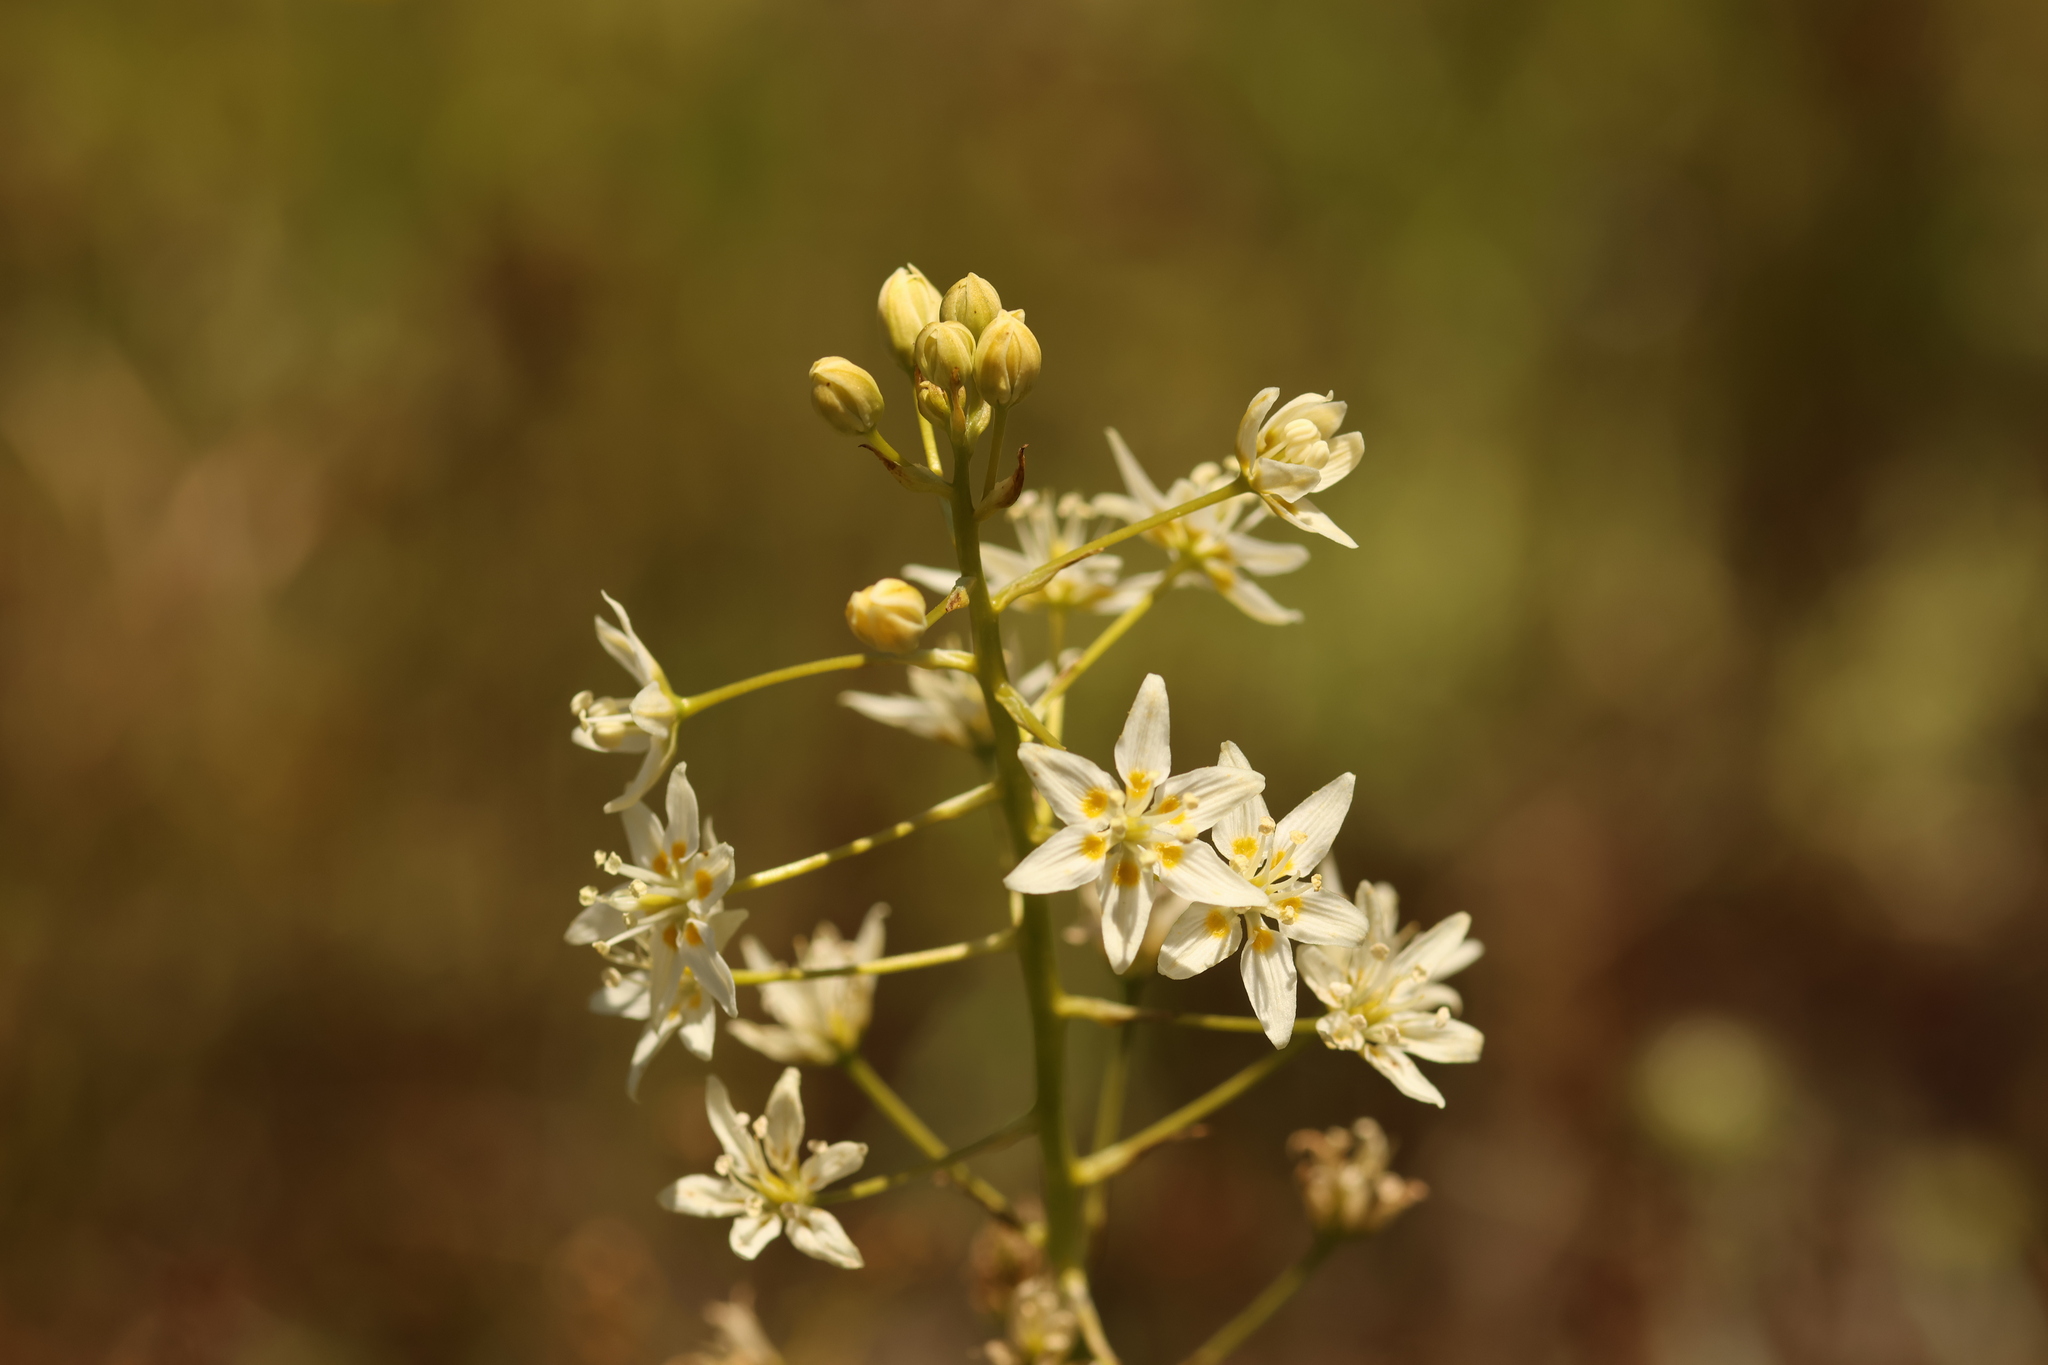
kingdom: Plantae
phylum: Tracheophyta
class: Liliopsida
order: Liliales
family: Melanthiaceae
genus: Toxicoscordion
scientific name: Toxicoscordion fremontii
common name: Fremont's death camas
